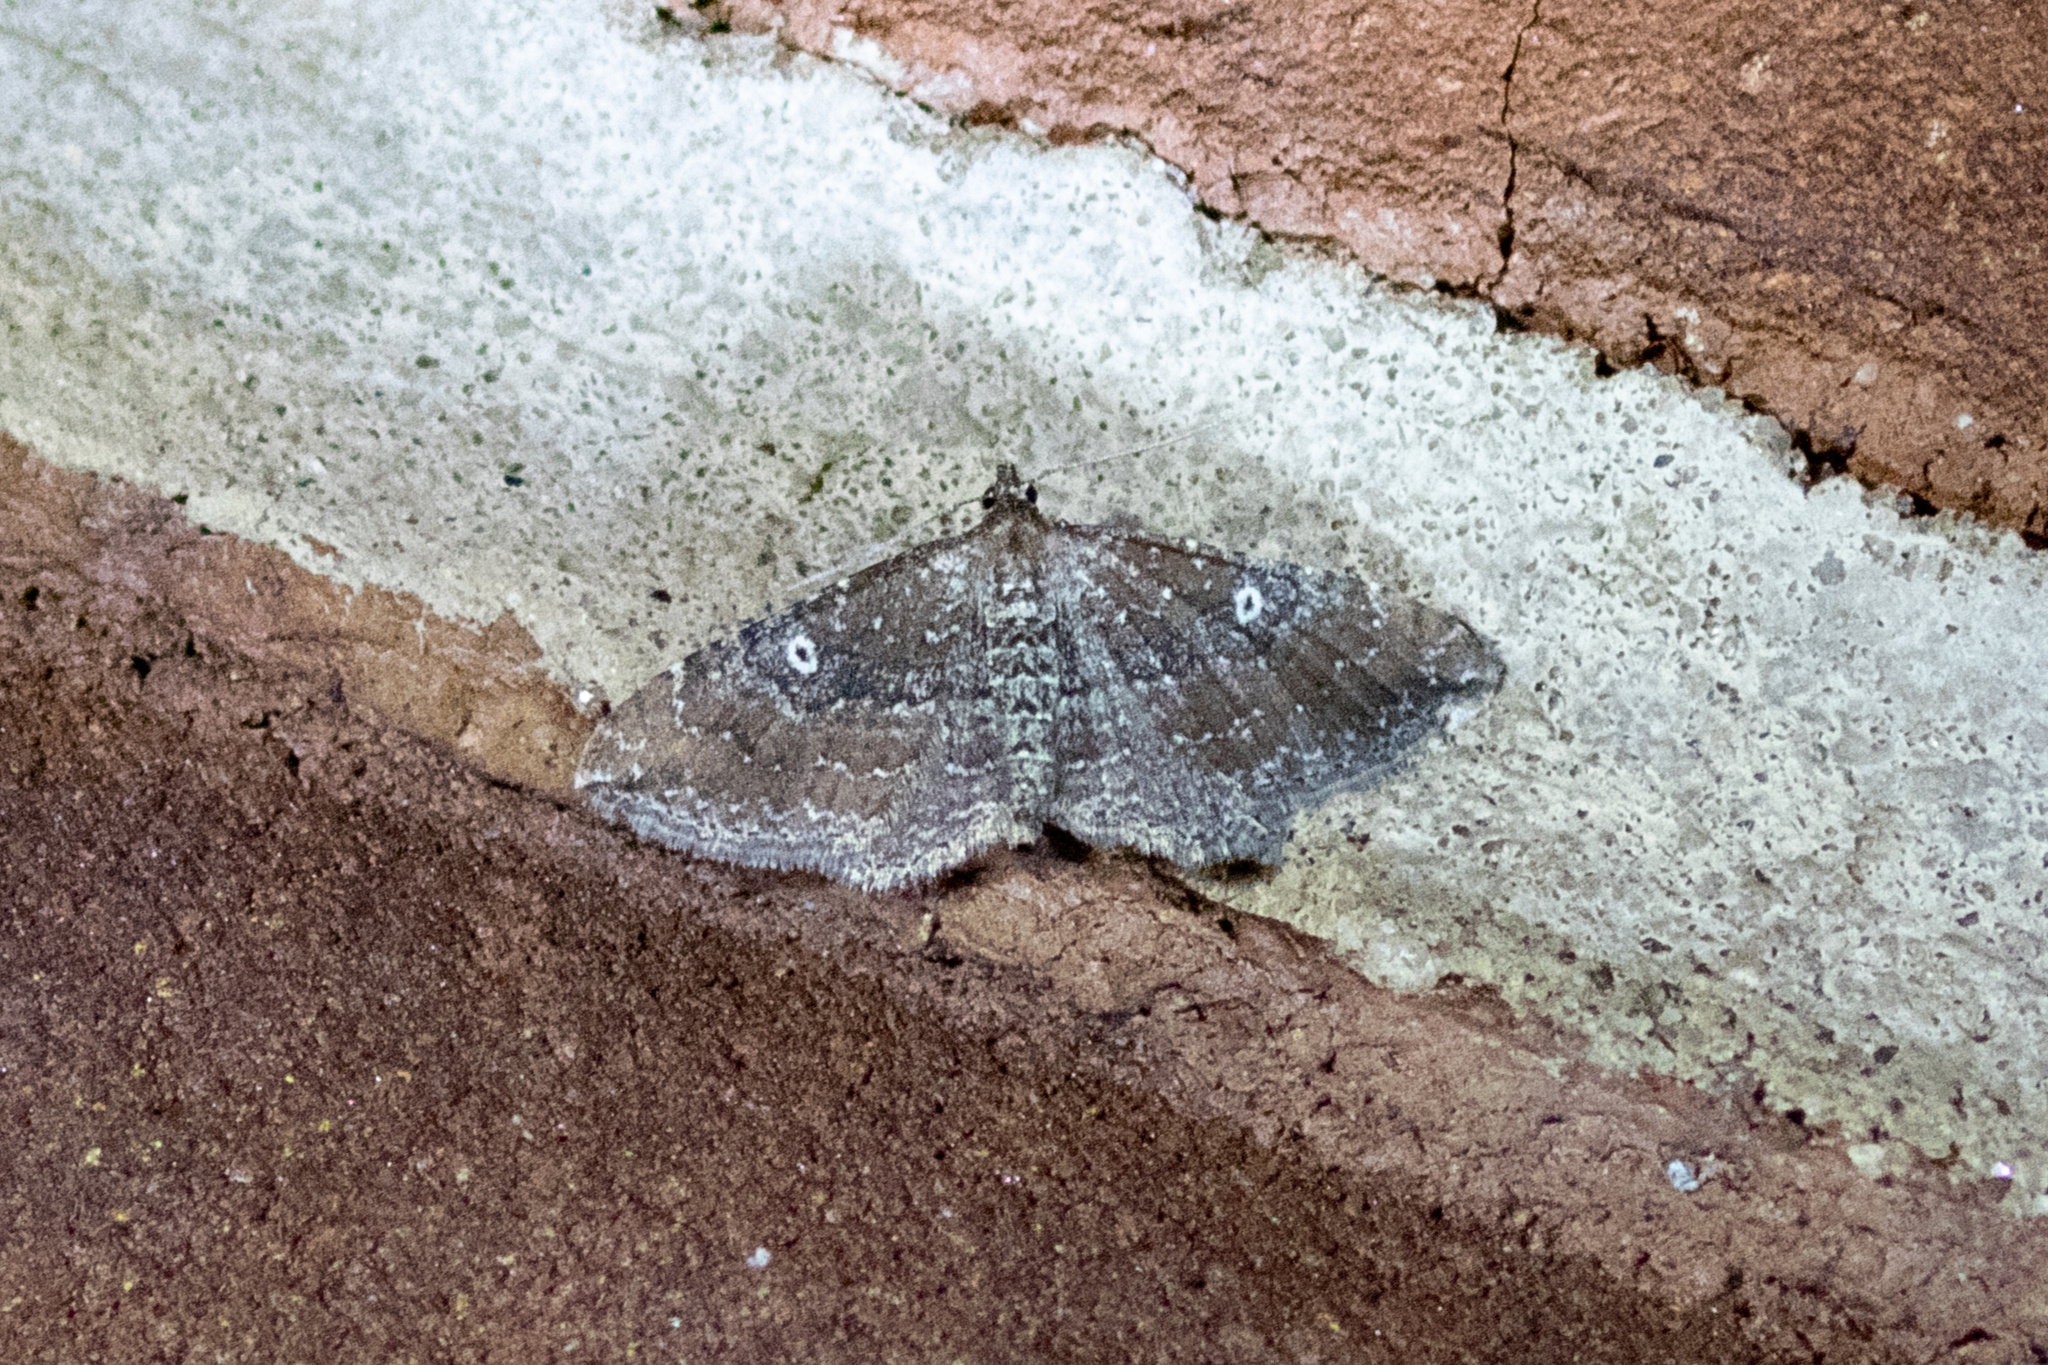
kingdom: Animalia
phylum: Arthropoda
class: Insecta
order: Lepidoptera
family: Geometridae
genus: Orthonama
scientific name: Orthonama obstipata
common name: The gem
